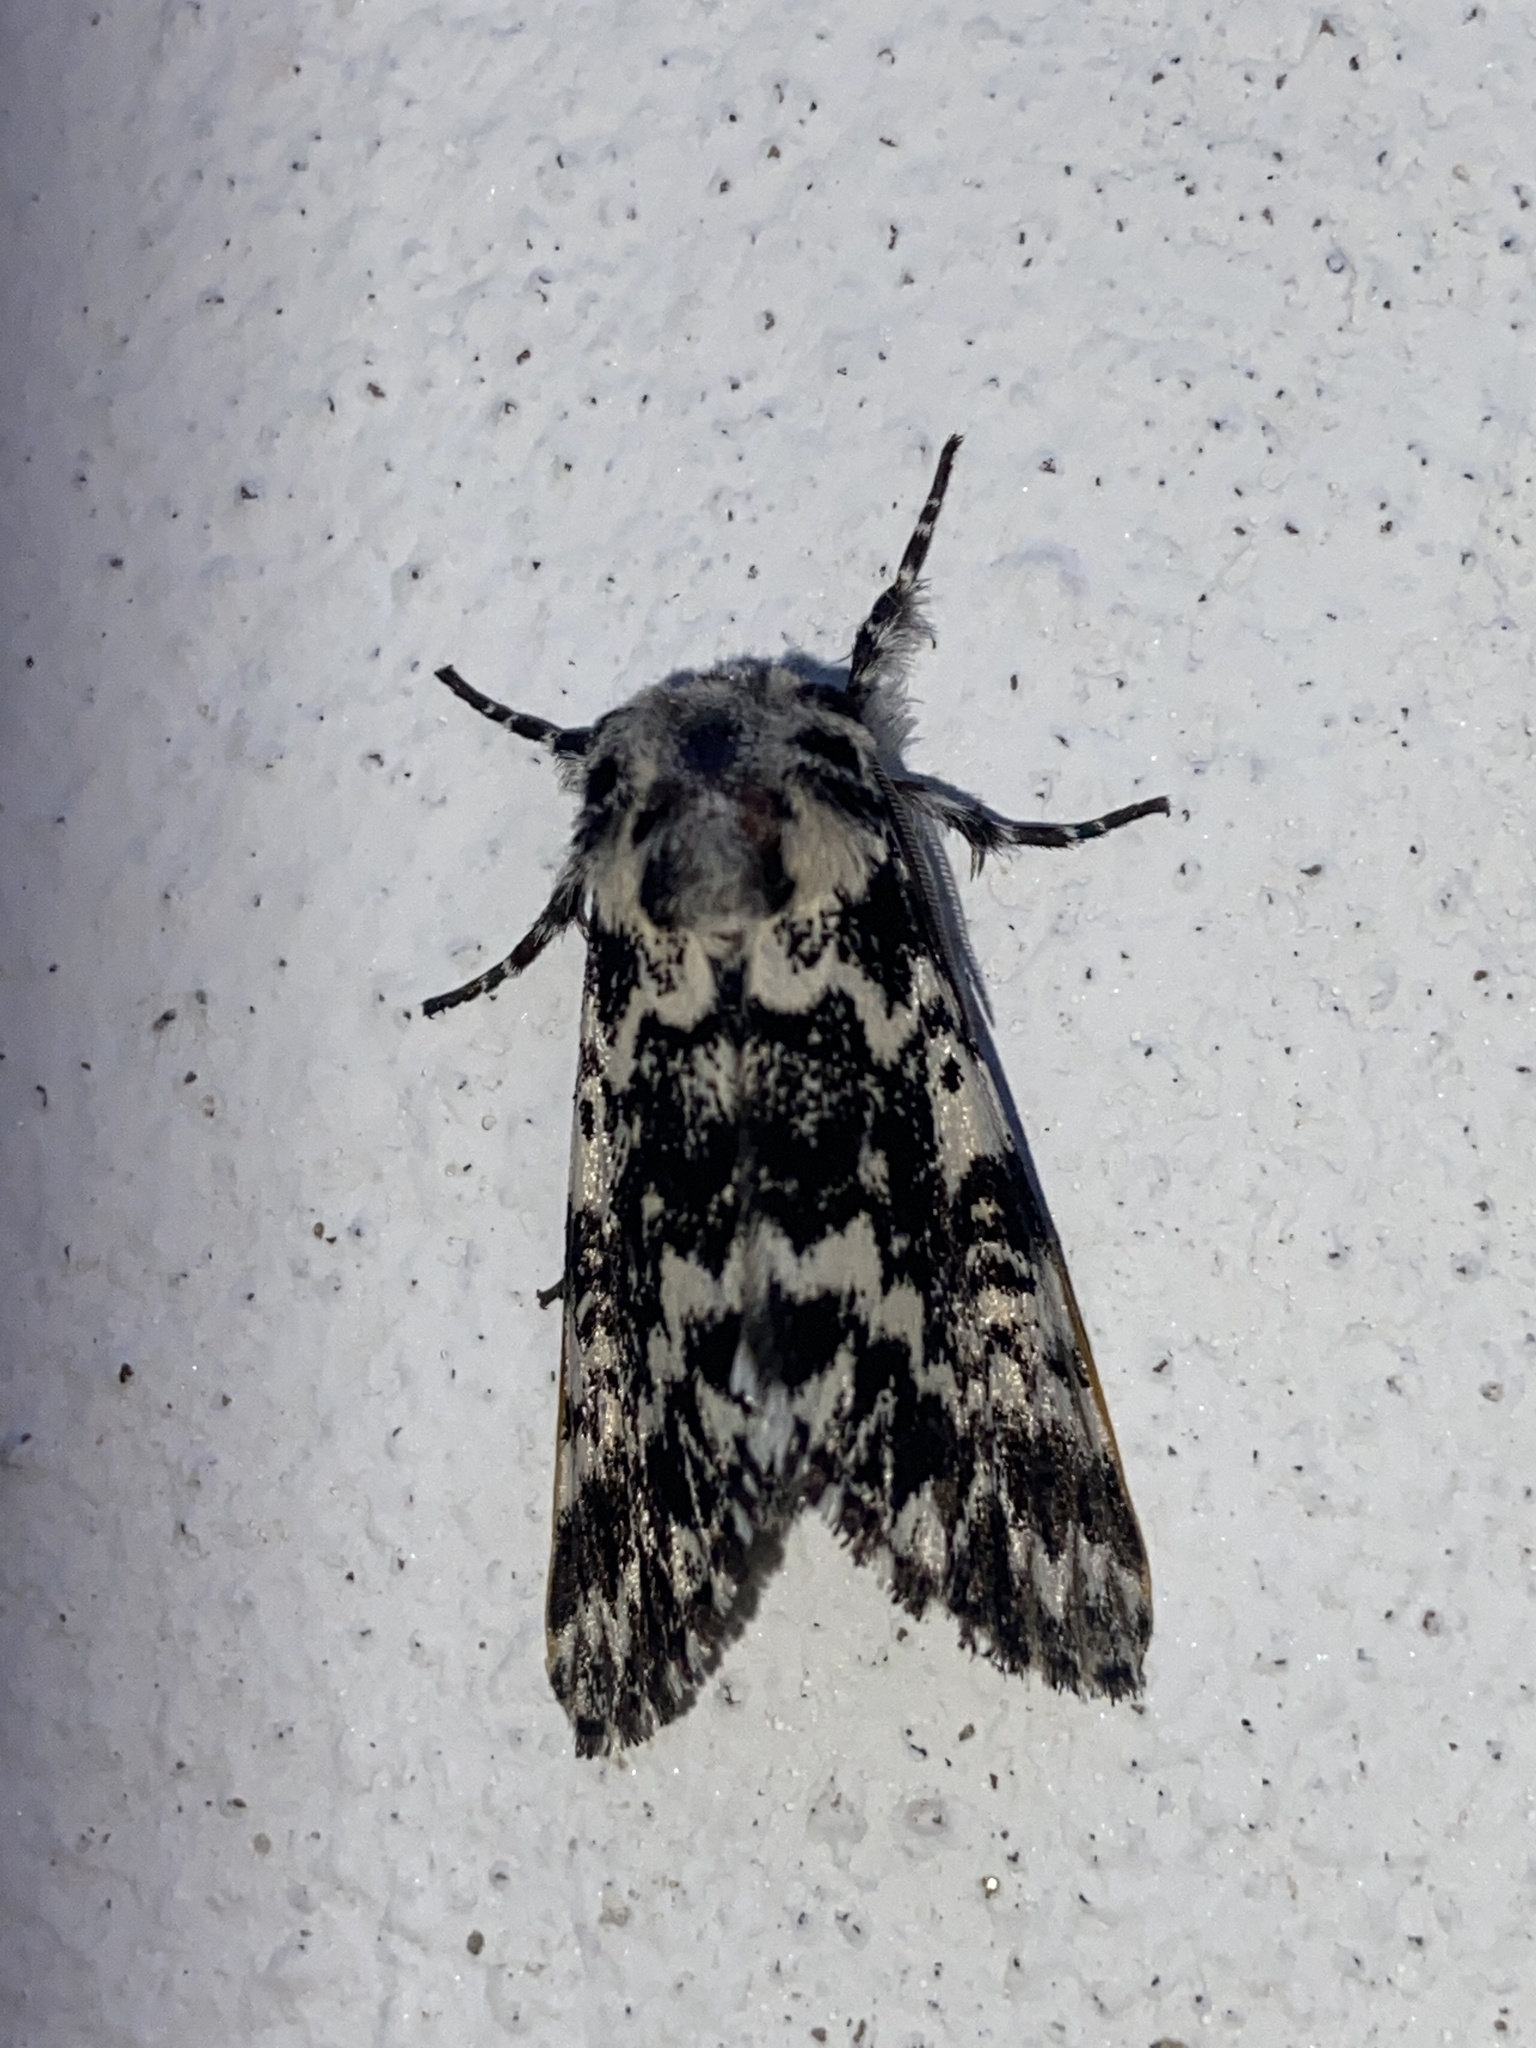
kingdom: Animalia
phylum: Arthropoda
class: Insecta
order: Lepidoptera
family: Noctuidae
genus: Panthea
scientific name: Panthea coenobita
